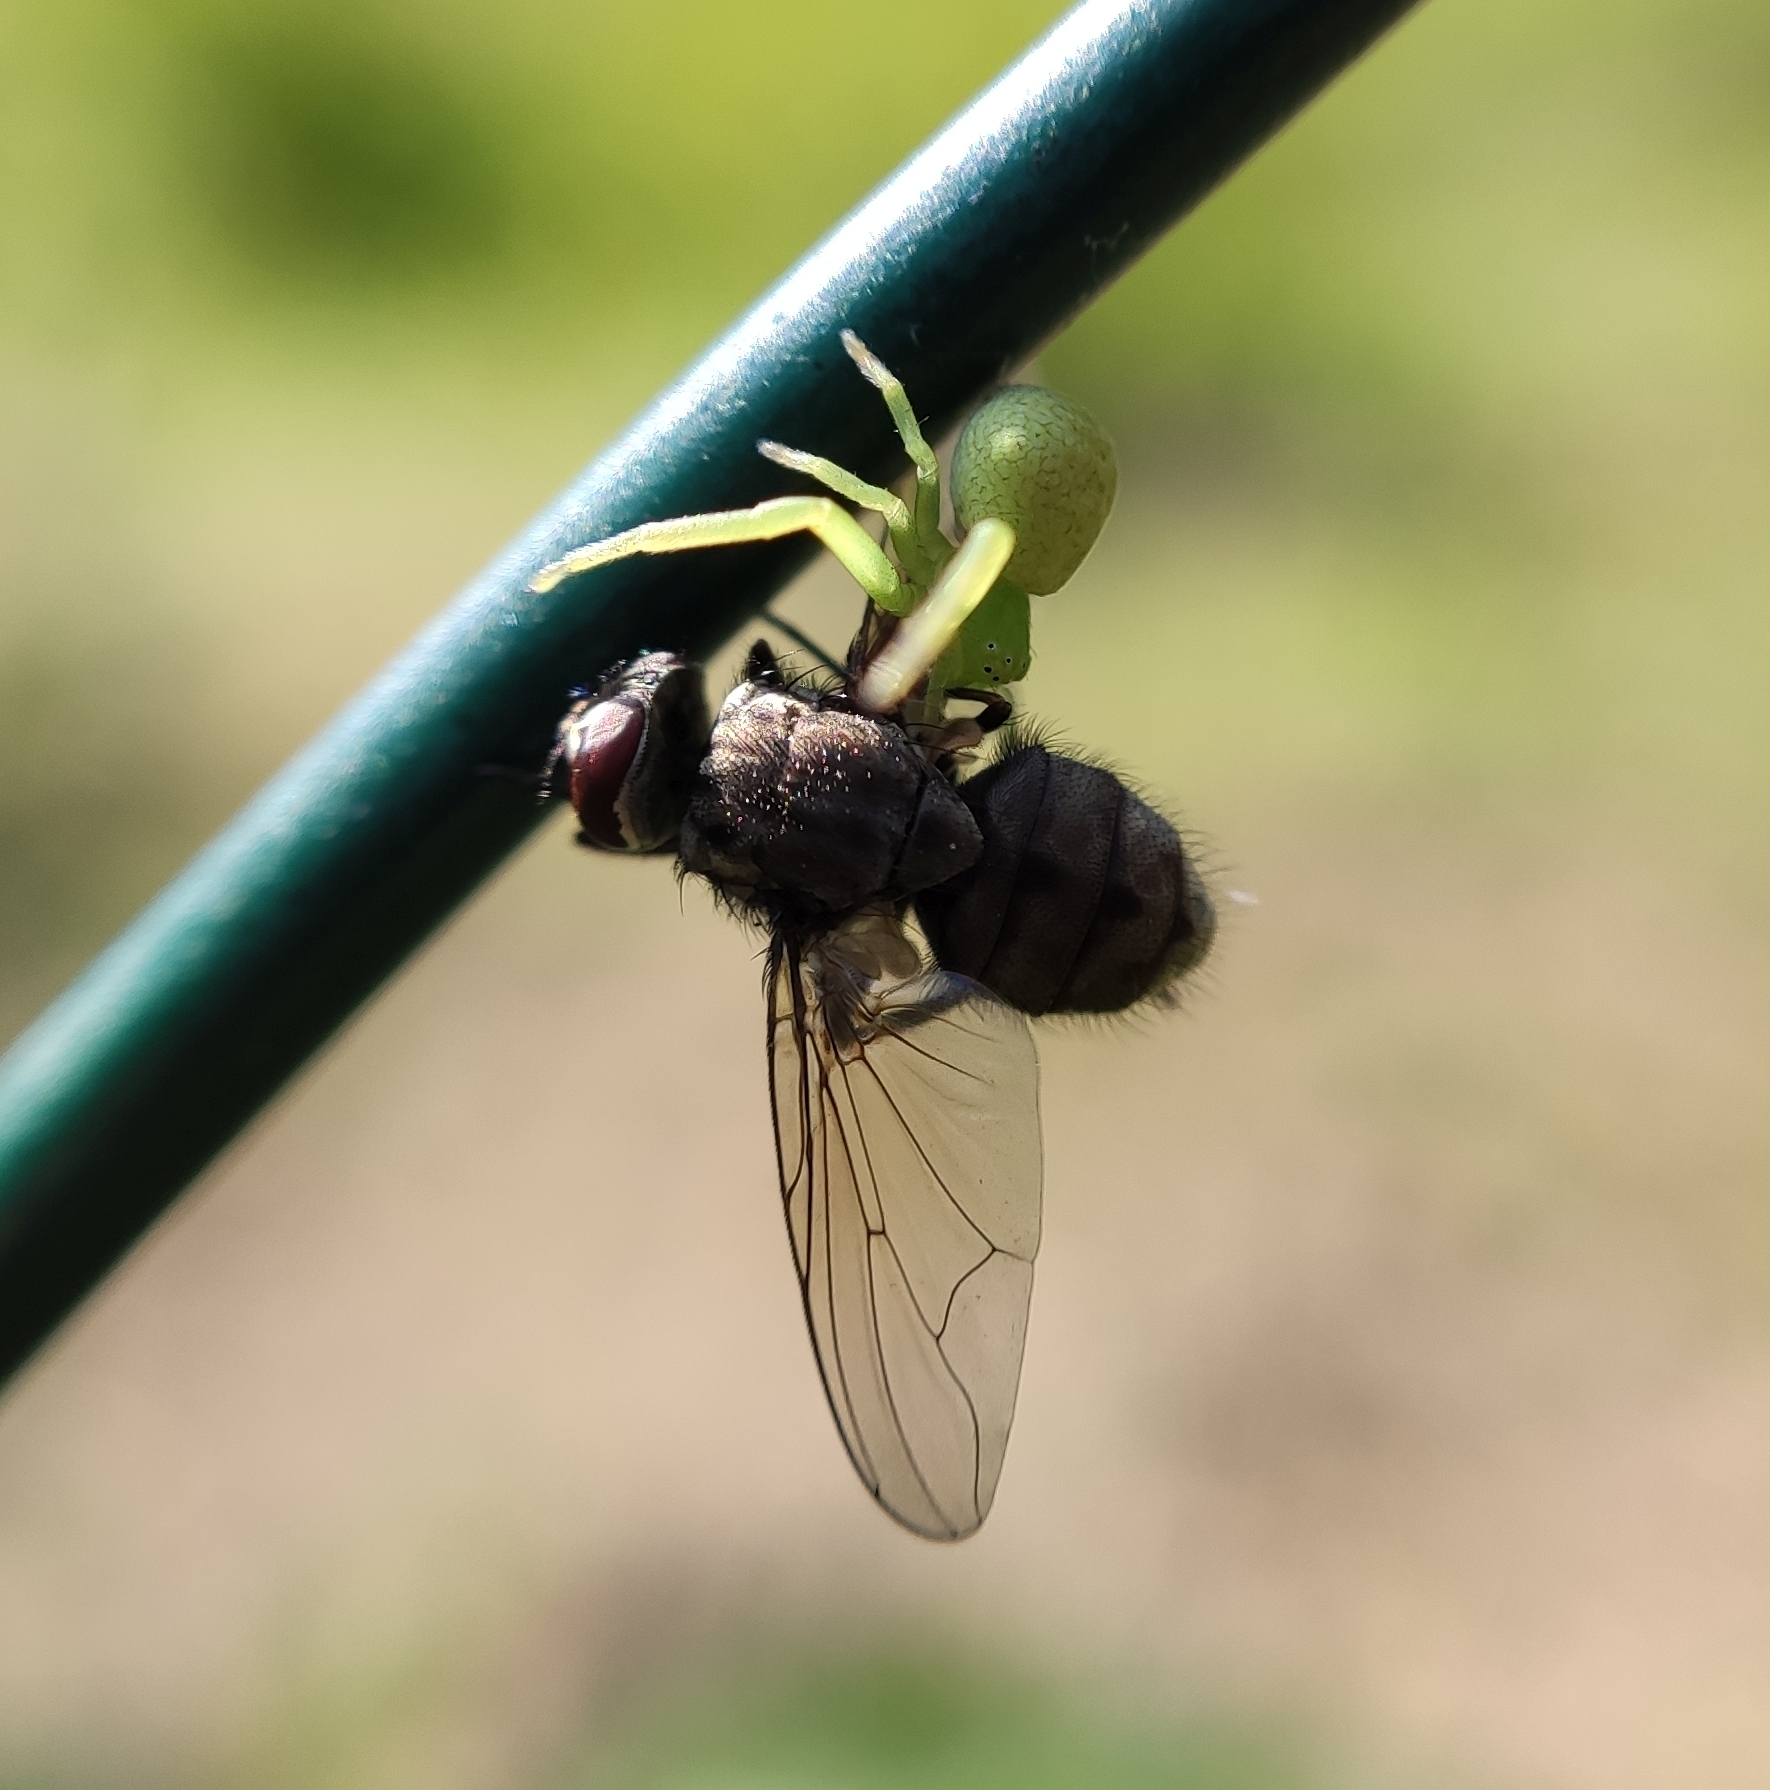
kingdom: Animalia
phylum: Arthropoda
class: Arachnida
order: Araneae
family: Thomisidae
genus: Ebrechtella
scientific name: Ebrechtella tricuspidata
